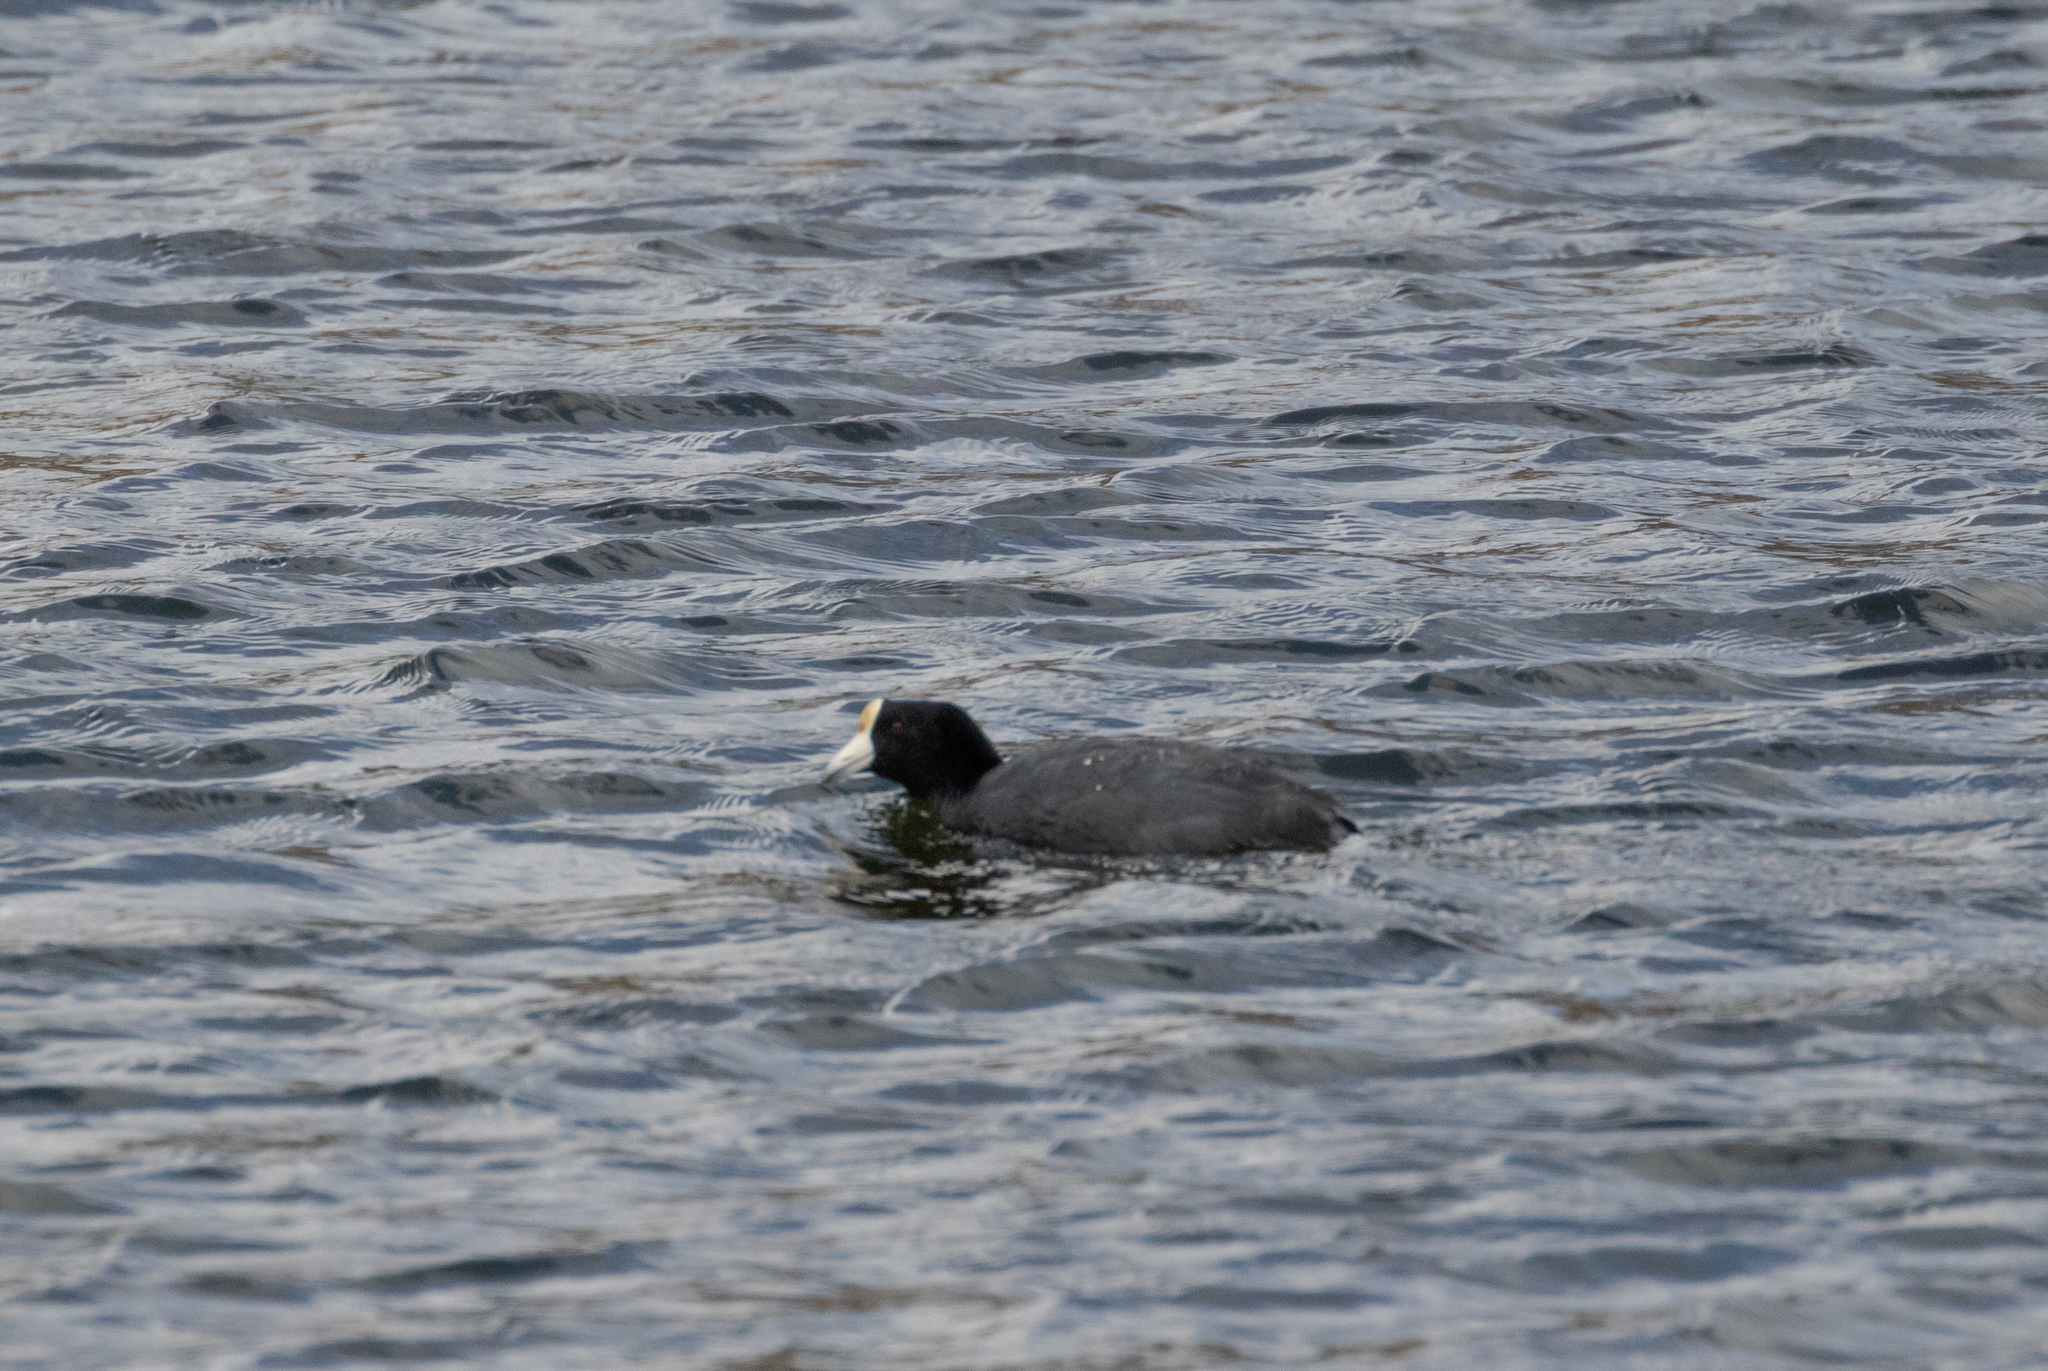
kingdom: Animalia
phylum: Chordata
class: Aves
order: Gruiformes
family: Rallidae
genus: Fulica
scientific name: Fulica americana
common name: American coot
